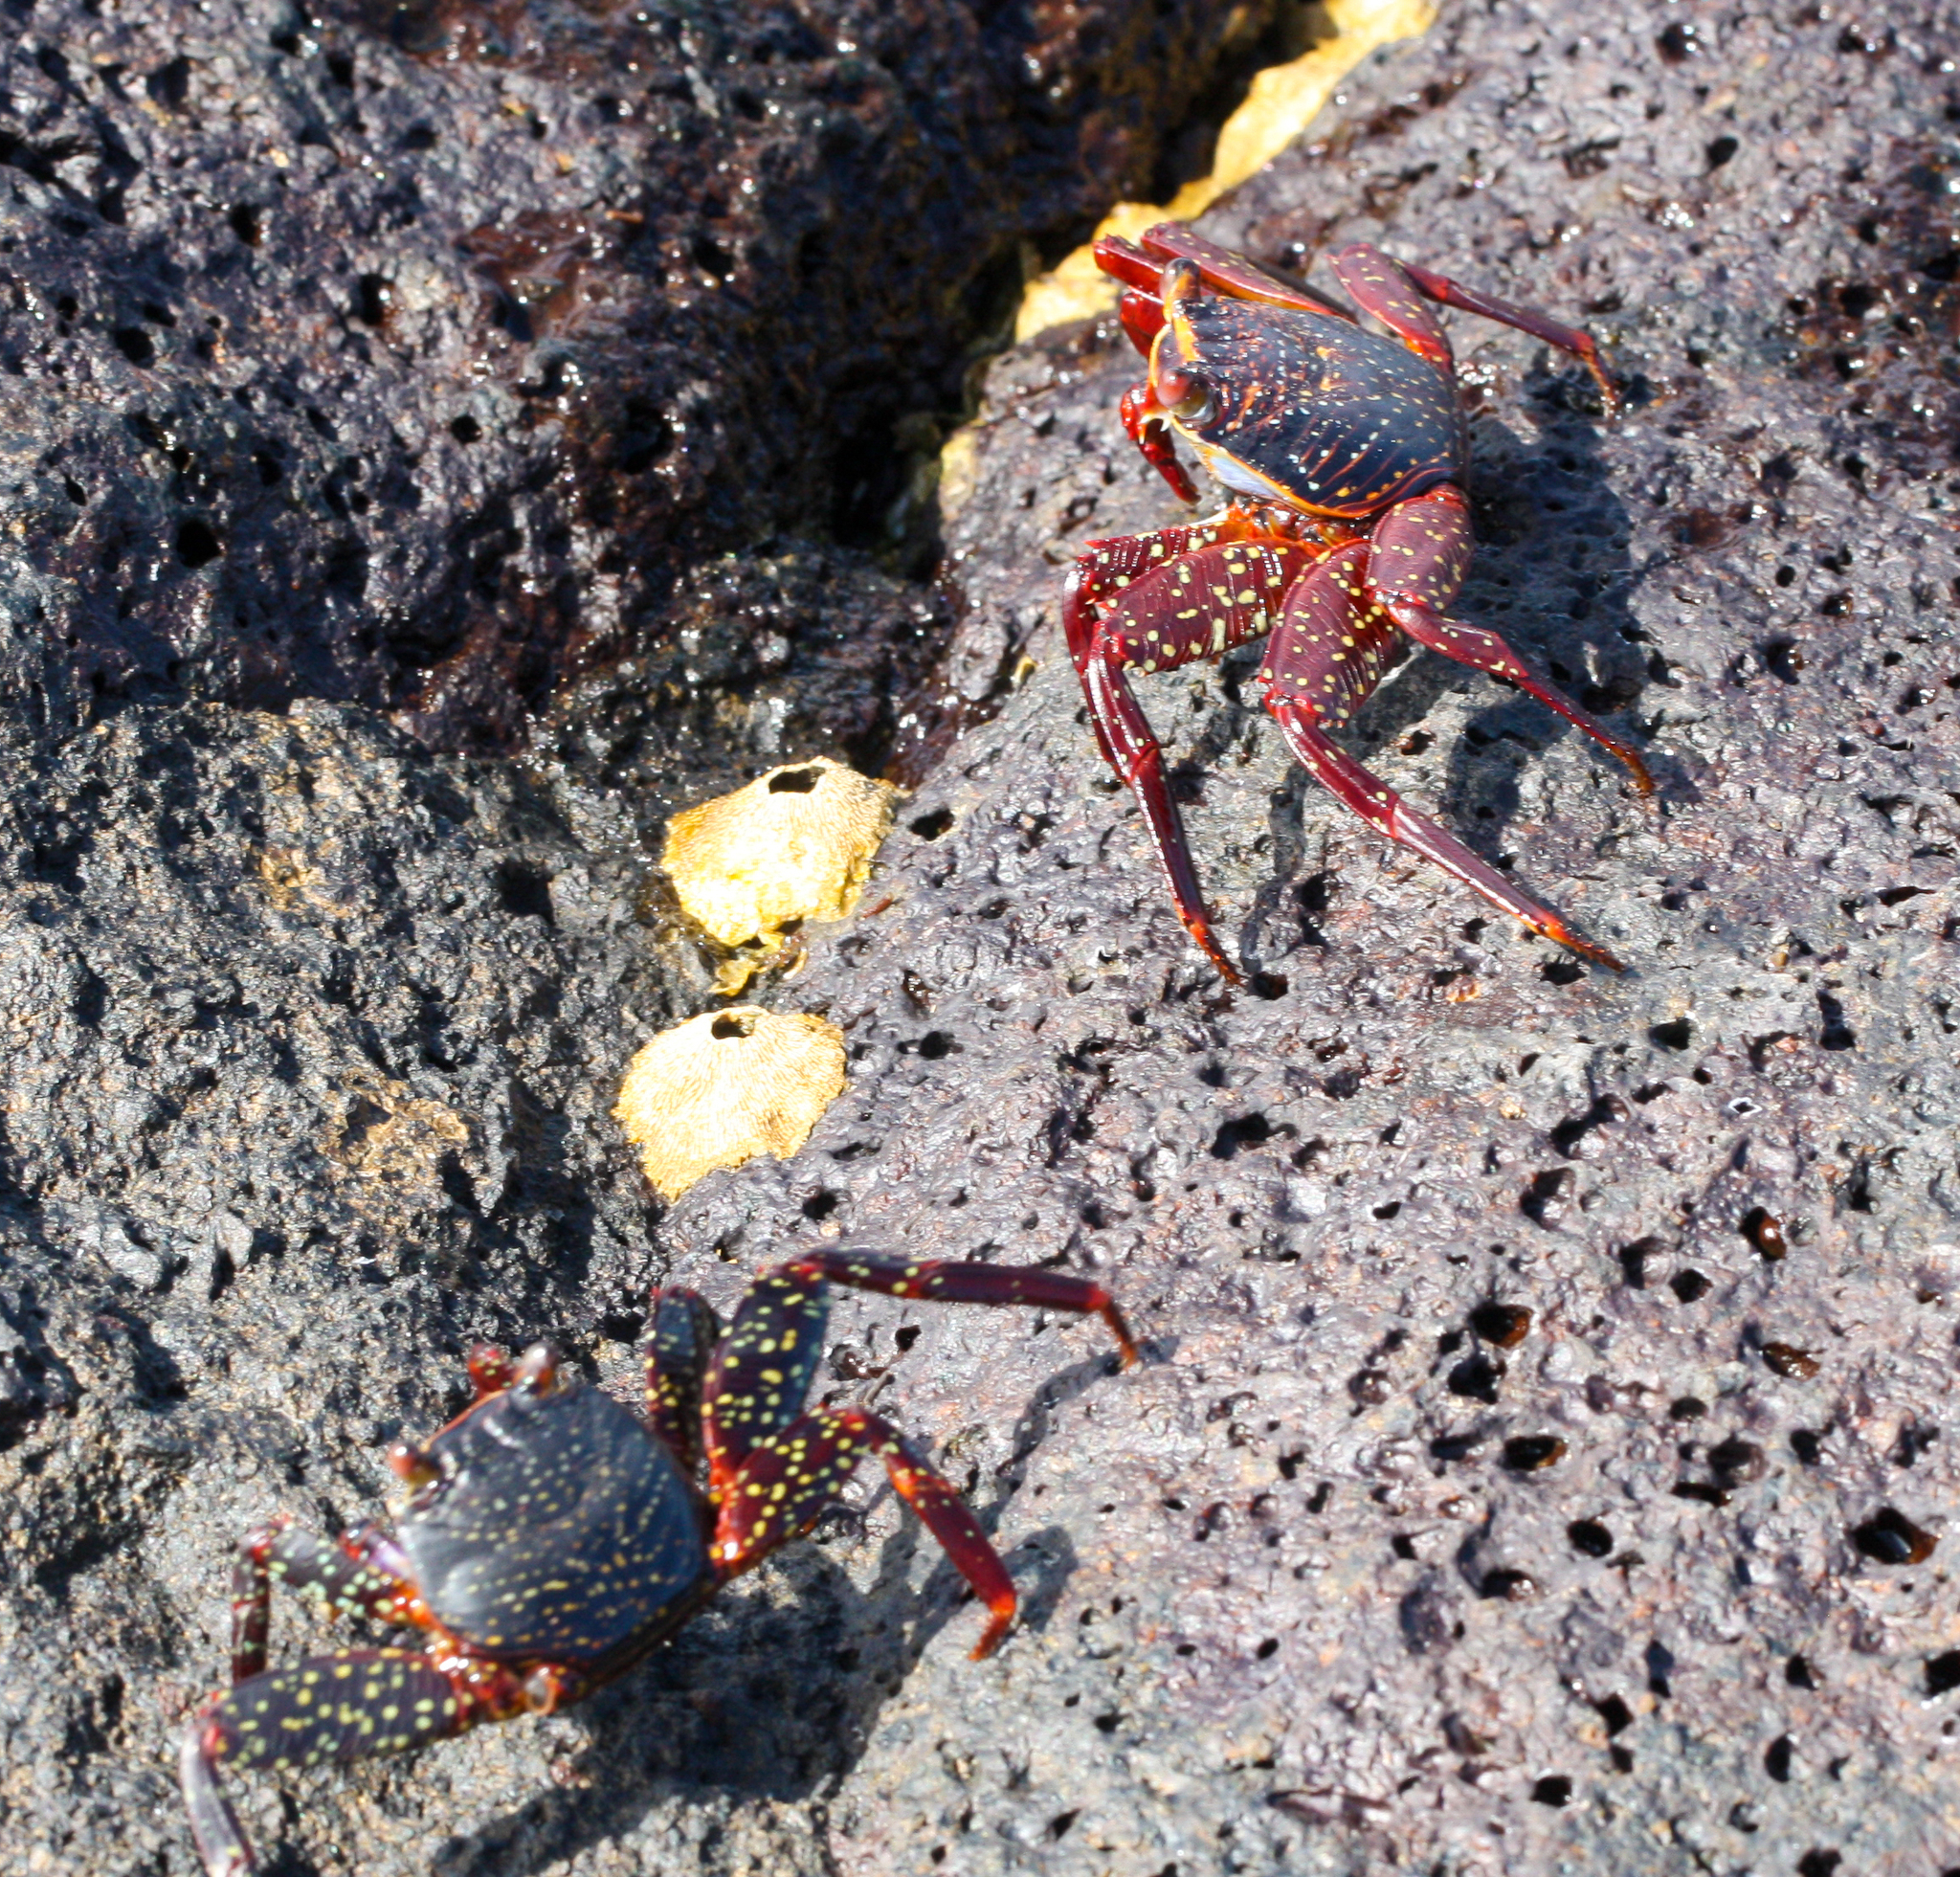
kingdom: Animalia
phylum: Arthropoda
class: Malacostraca
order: Decapoda
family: Grapsidae
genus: Grapsus
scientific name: Grapsus grapsus
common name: Sally lightfoot
